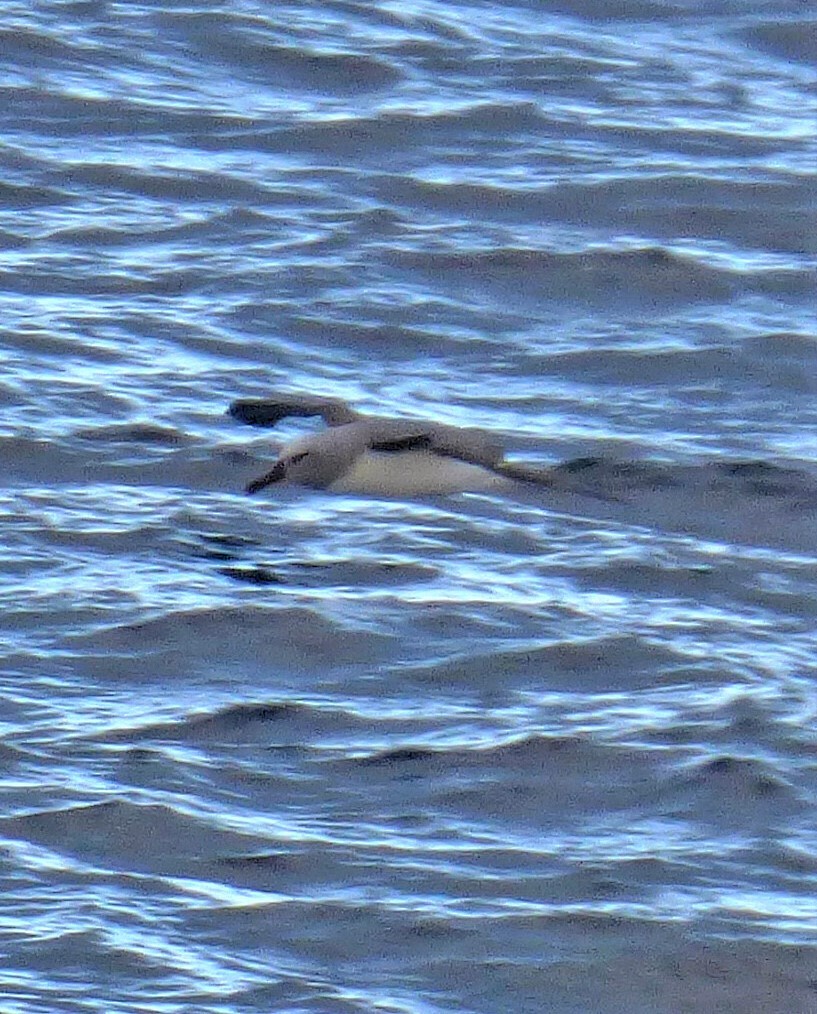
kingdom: Animalia
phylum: Chordata
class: Aves
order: Procellariiformes
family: Diomedeidae
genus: Thalassarche
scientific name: Thalassarche chrysostoma
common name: Grey-headed albatross
